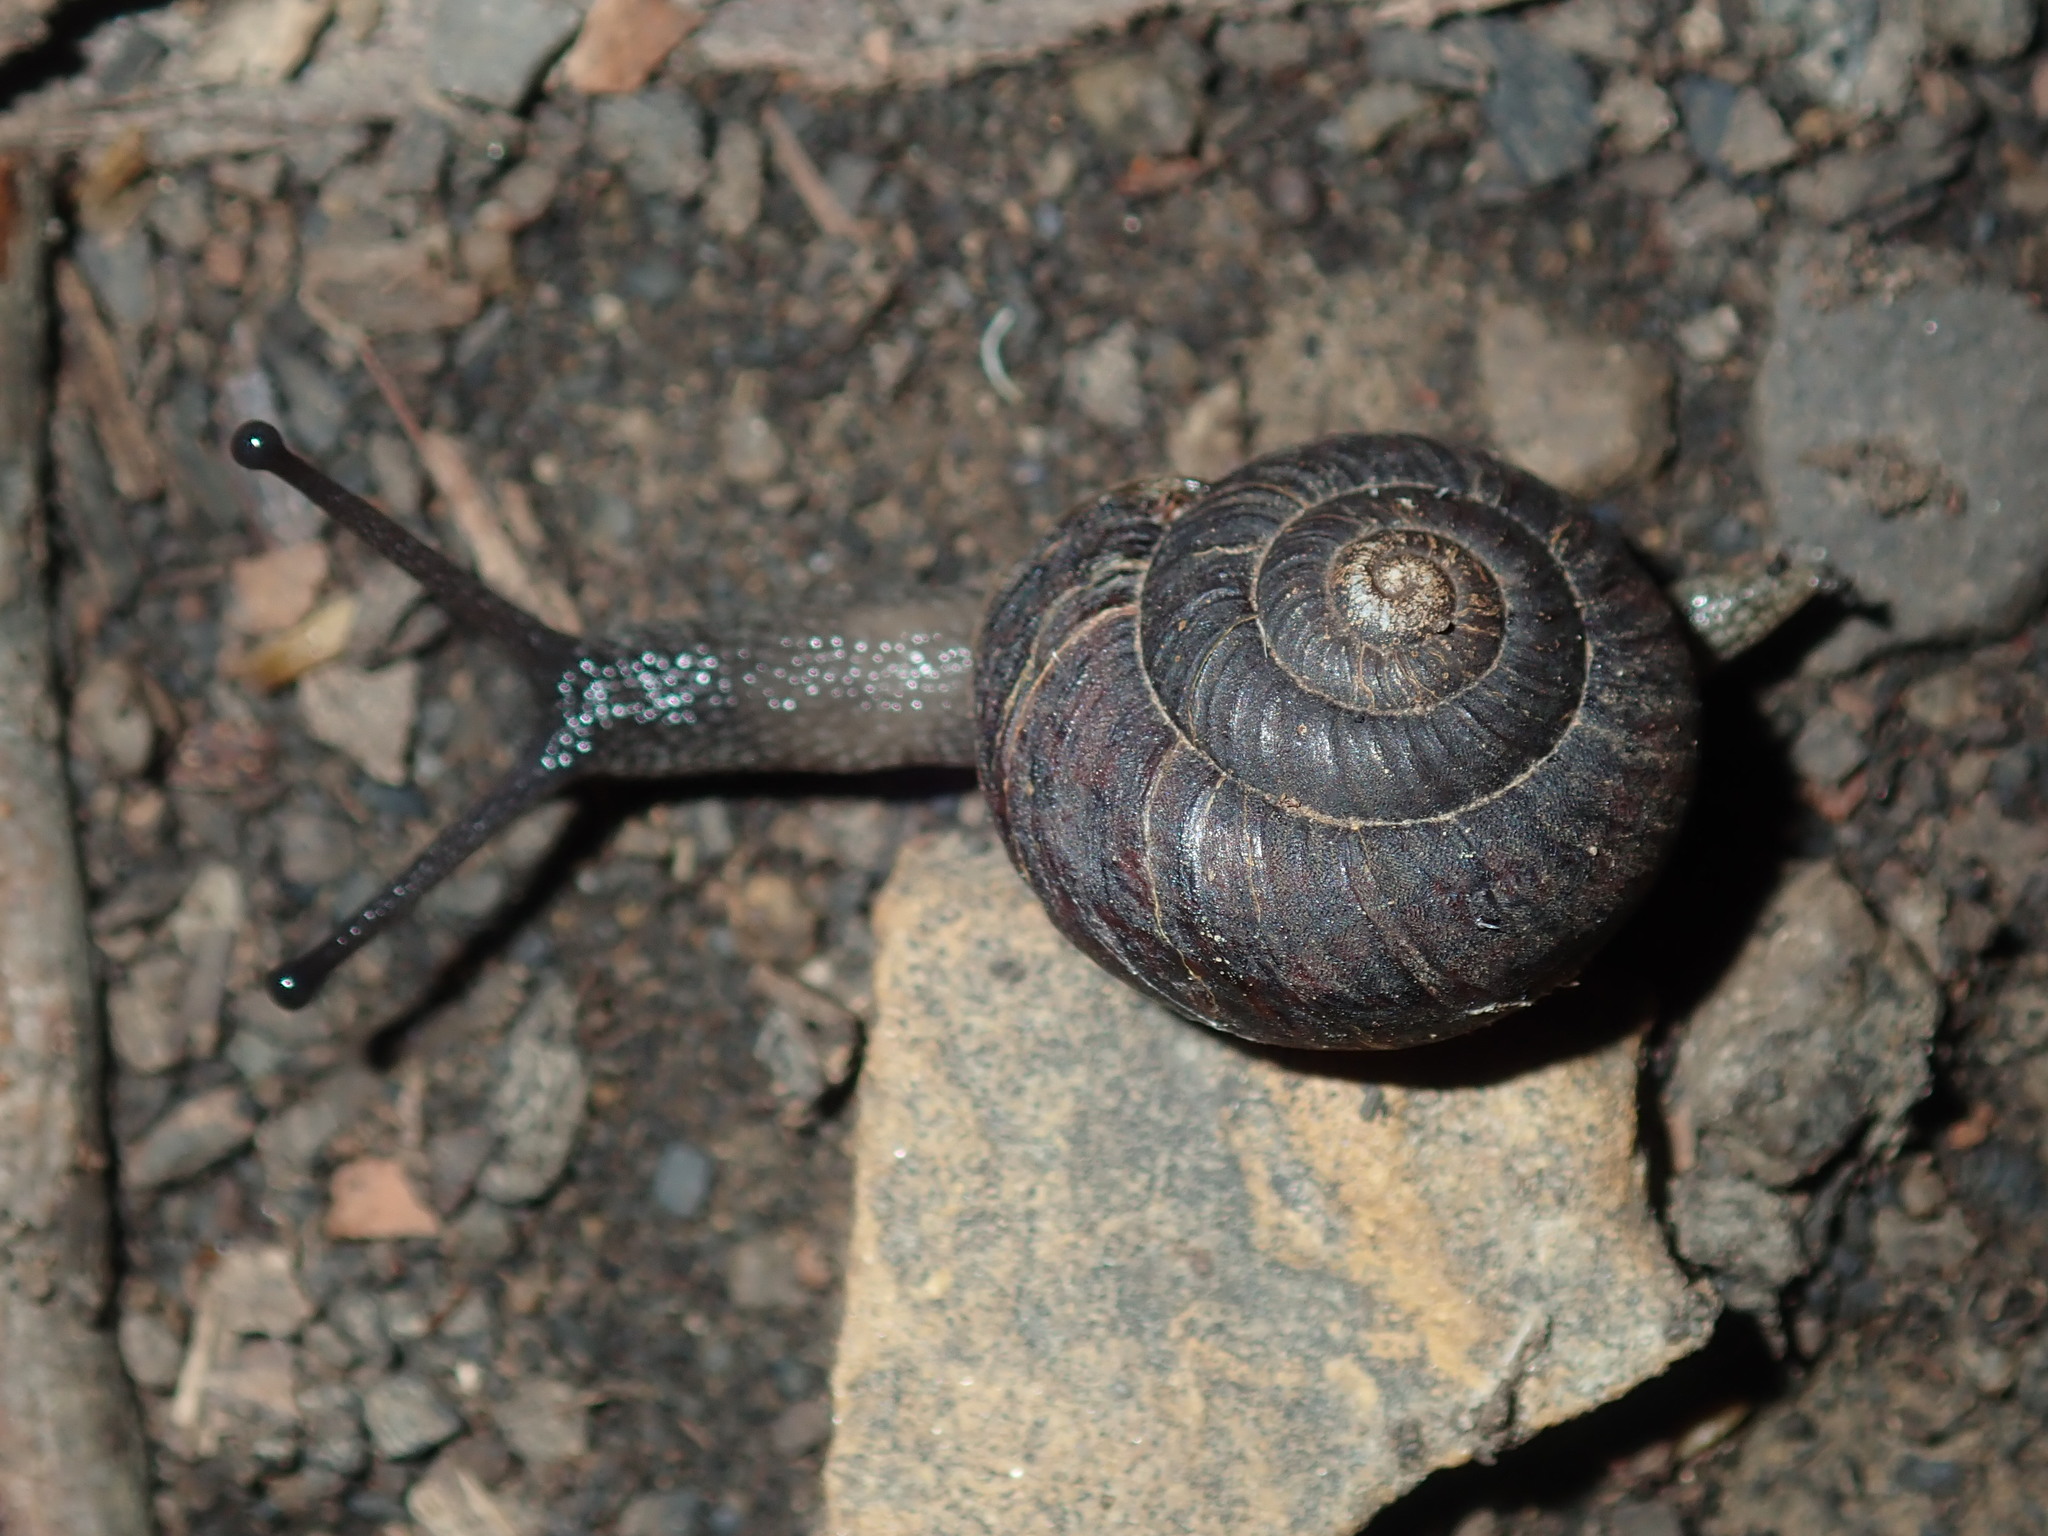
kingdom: Animalia
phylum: Mollusca
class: Gastropoda
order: Stylommatophora
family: Camaenidae
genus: Sauroconcha
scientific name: Sauroconcha sheai
